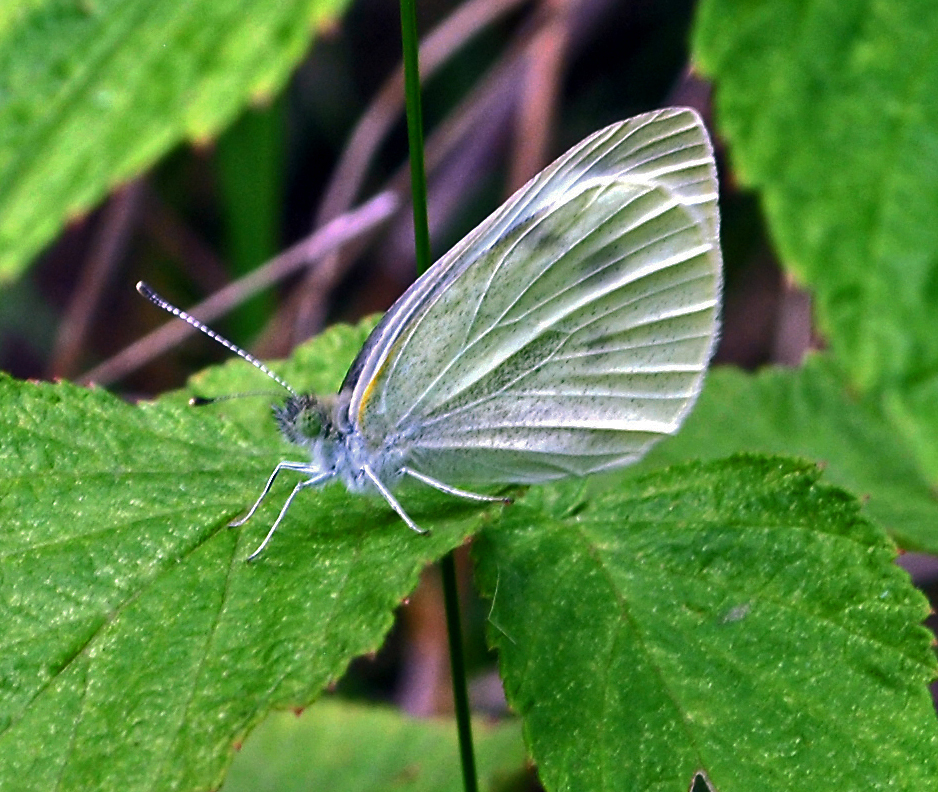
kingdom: Animalia
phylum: Arthropoda
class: Insecta
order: Lepidoptera
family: Pieridae
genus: Pieris
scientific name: Pieris rapae
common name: Small white
